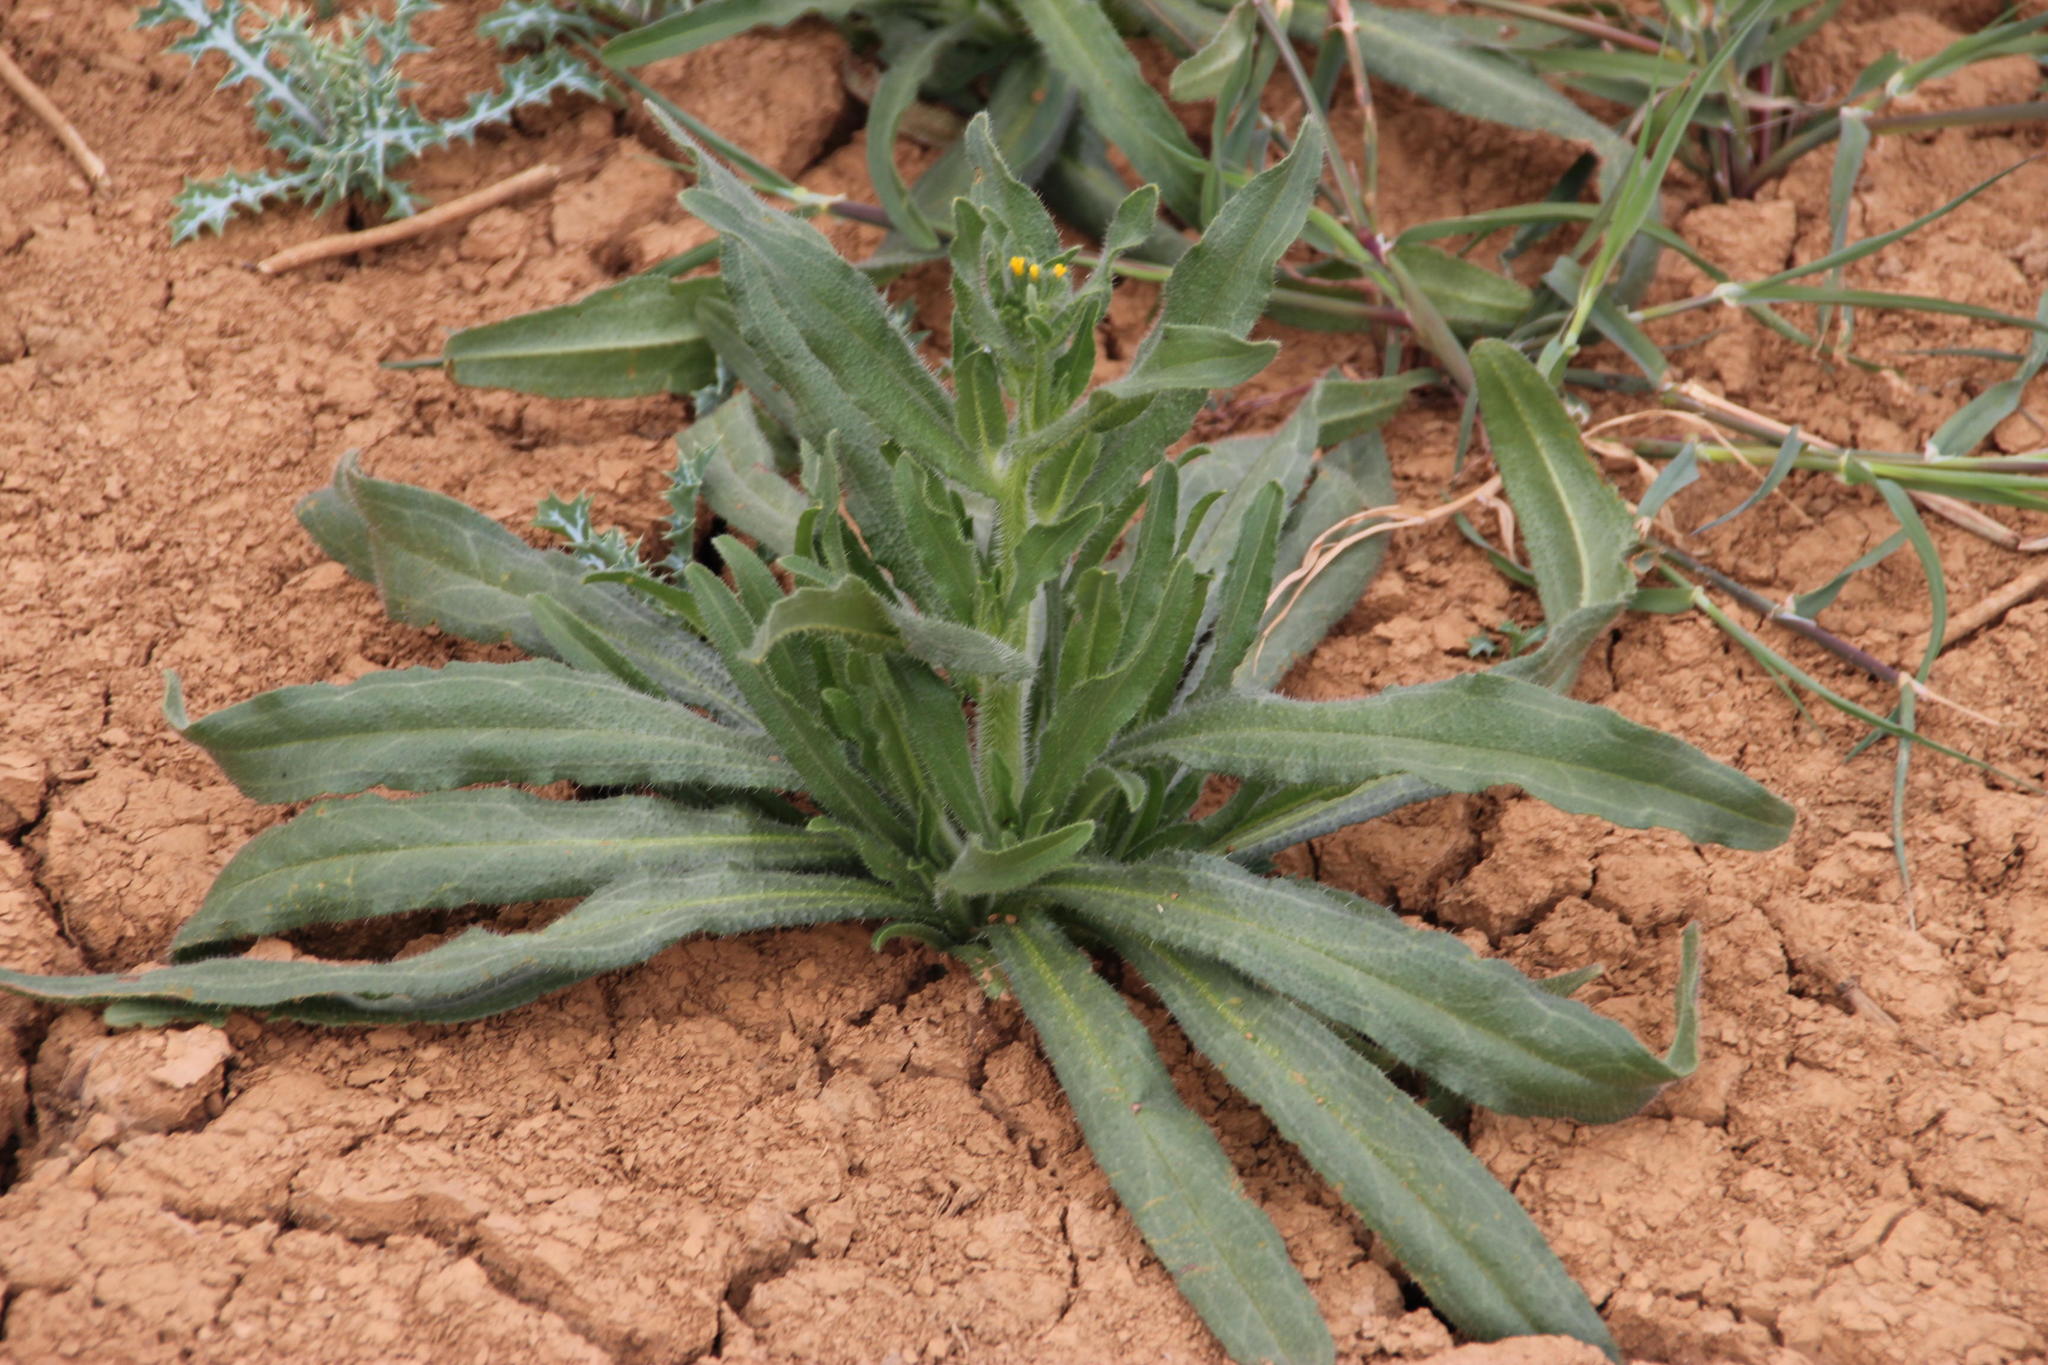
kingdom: Plantae
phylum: Tracheophyta
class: Magnoliopsida
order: Boraginales
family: Boraginaceae
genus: Amsinckia
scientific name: Amsinckia menziesii
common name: Menzies' fiddleneck
